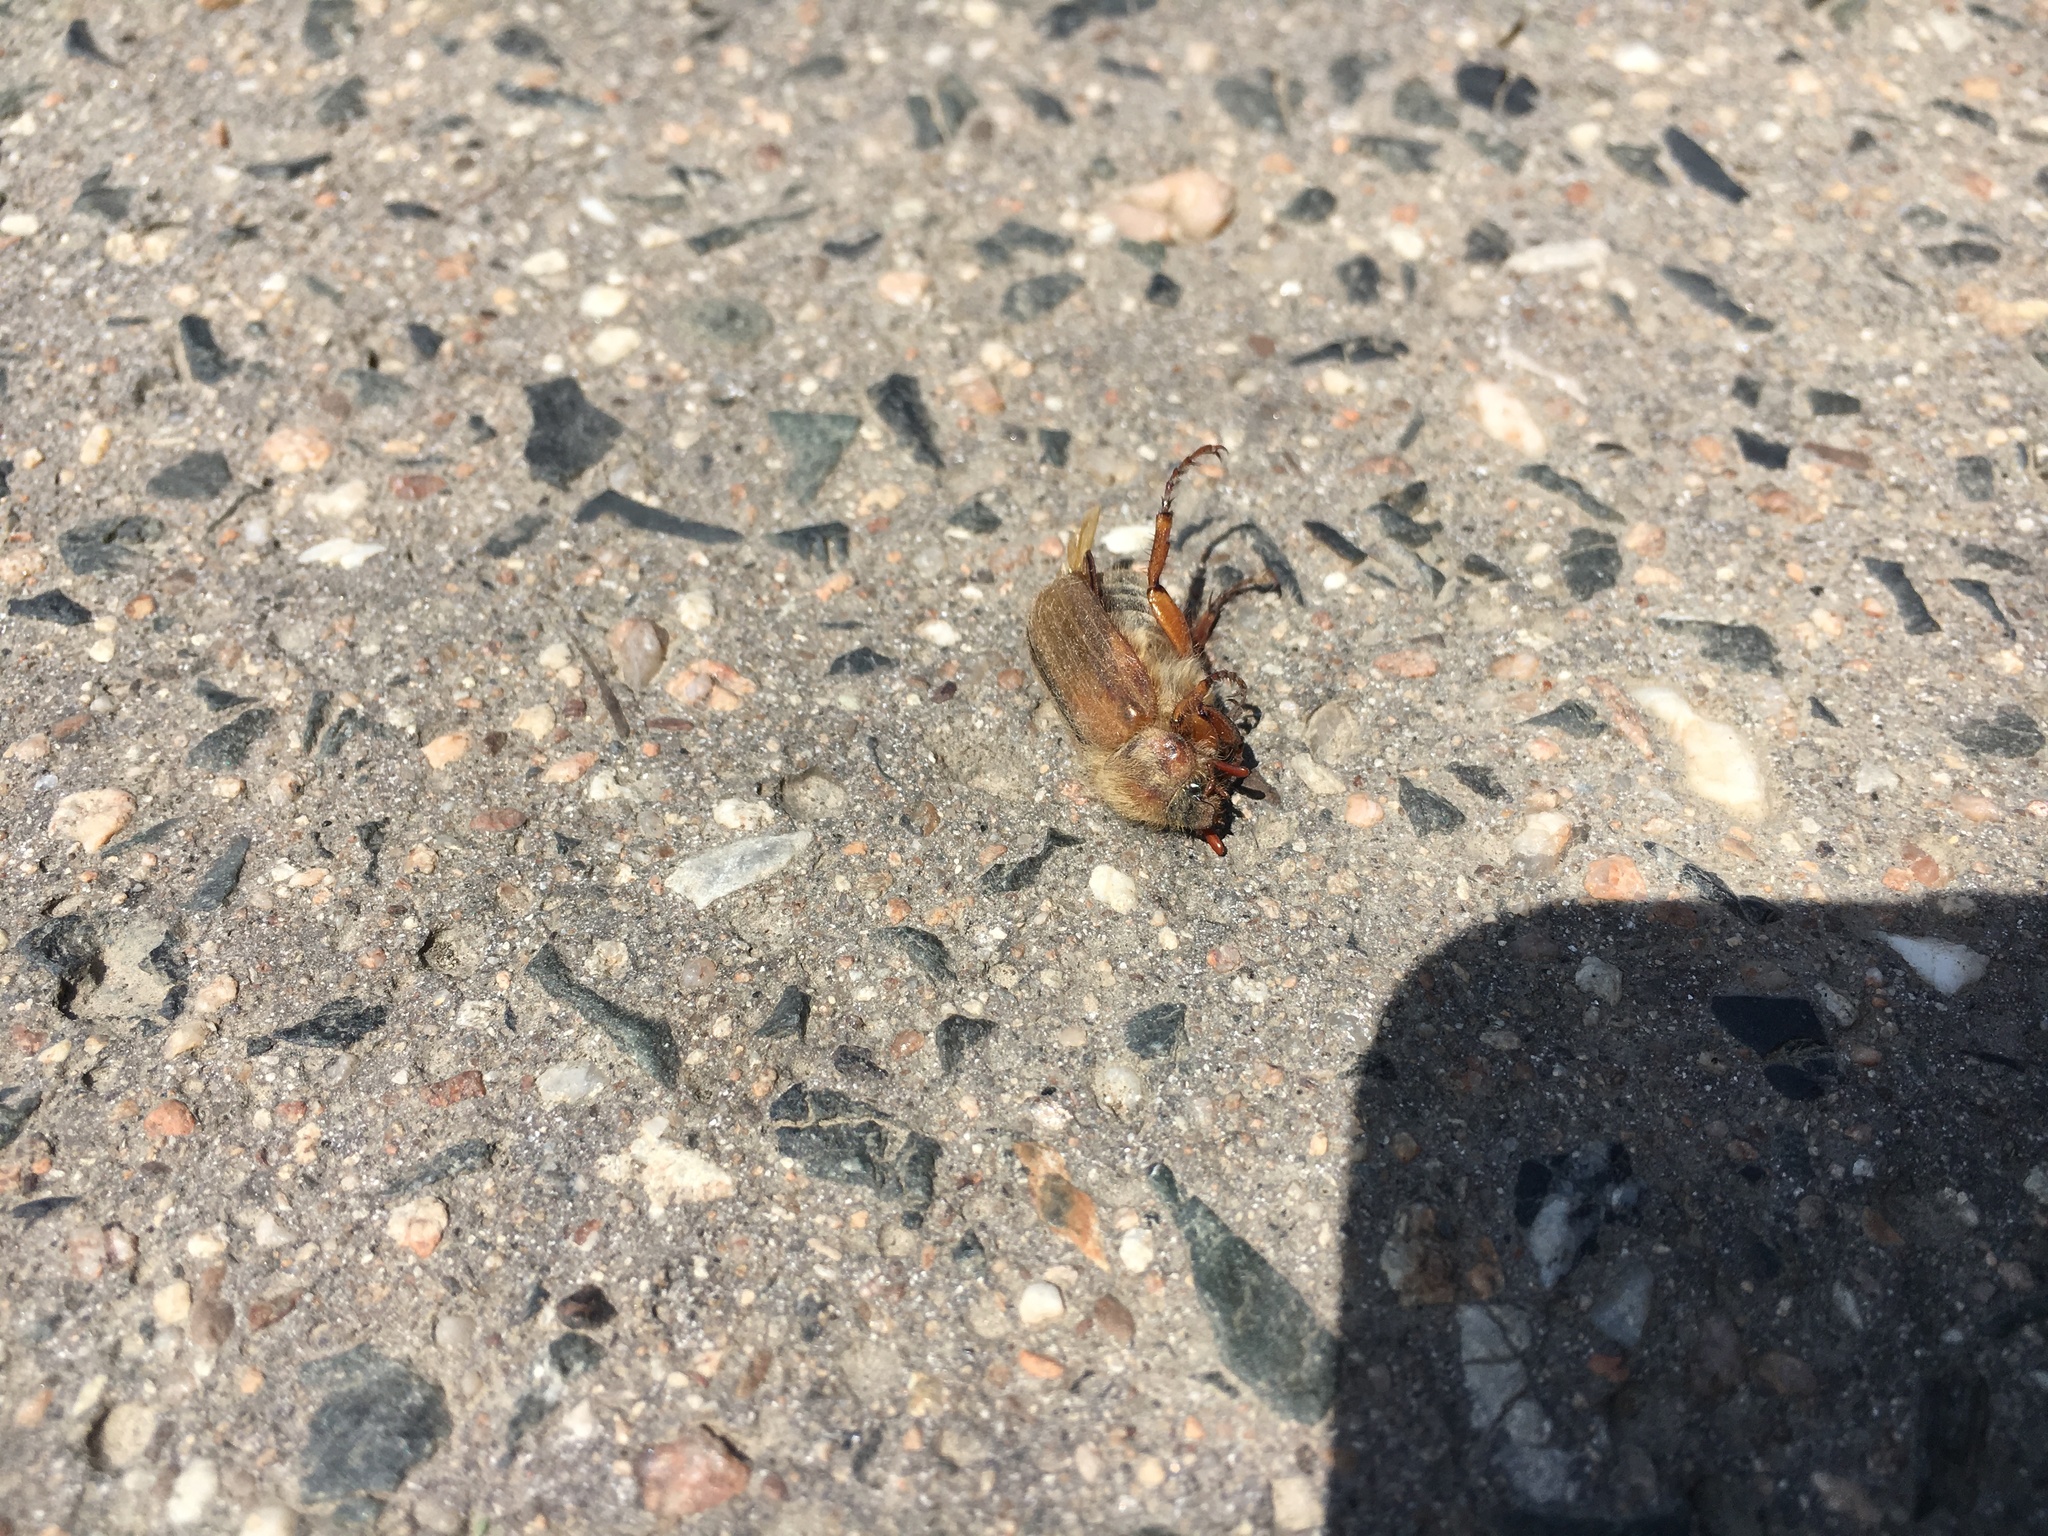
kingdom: Animalia
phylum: Arthropoda
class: Insecta
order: Coleoptera
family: Scarabaeidae
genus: Amphimallon
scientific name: Amphimallon solstitiale
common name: Summer chafer
